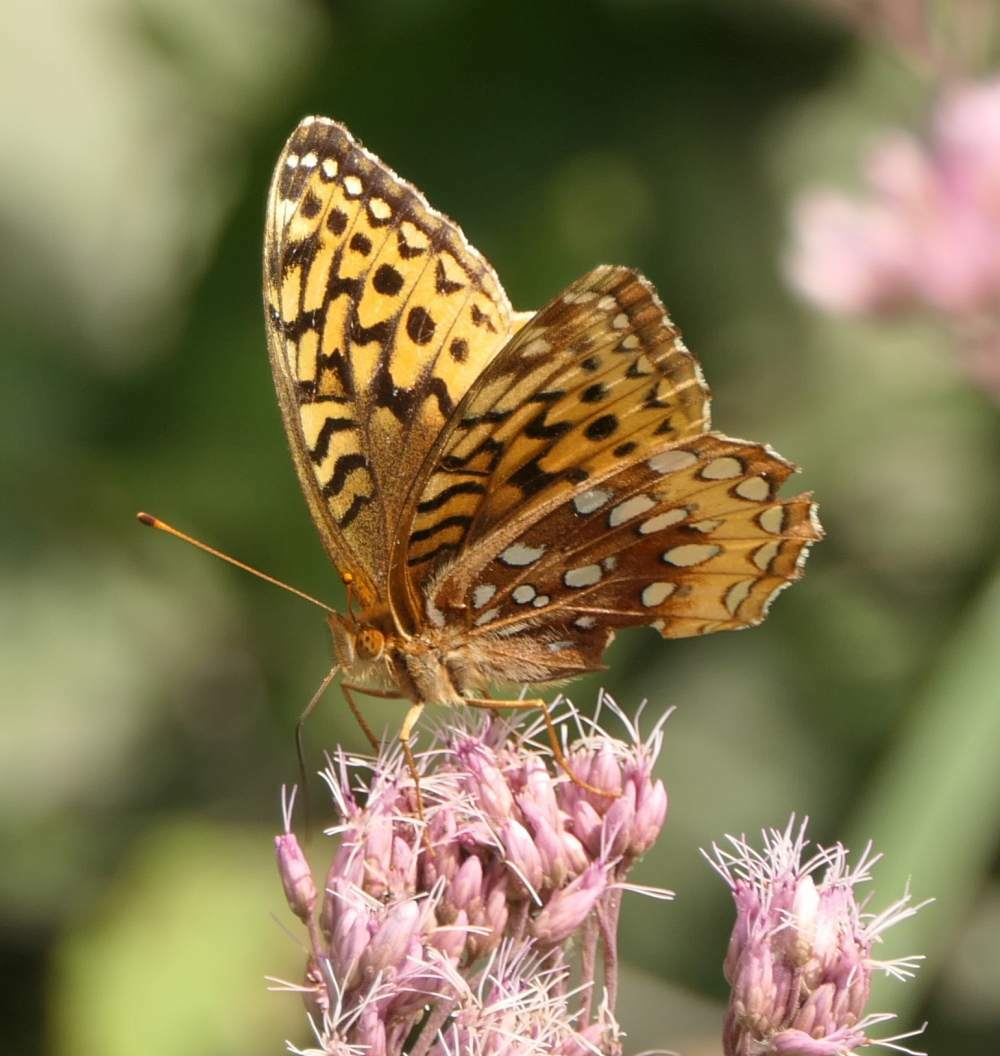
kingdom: Animalia
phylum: Arthropoda
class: Insecta
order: Lepidoptera
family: Nymphalidae
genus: Speyeria
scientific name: Speyeria cybele
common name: Great spangled fritillary
